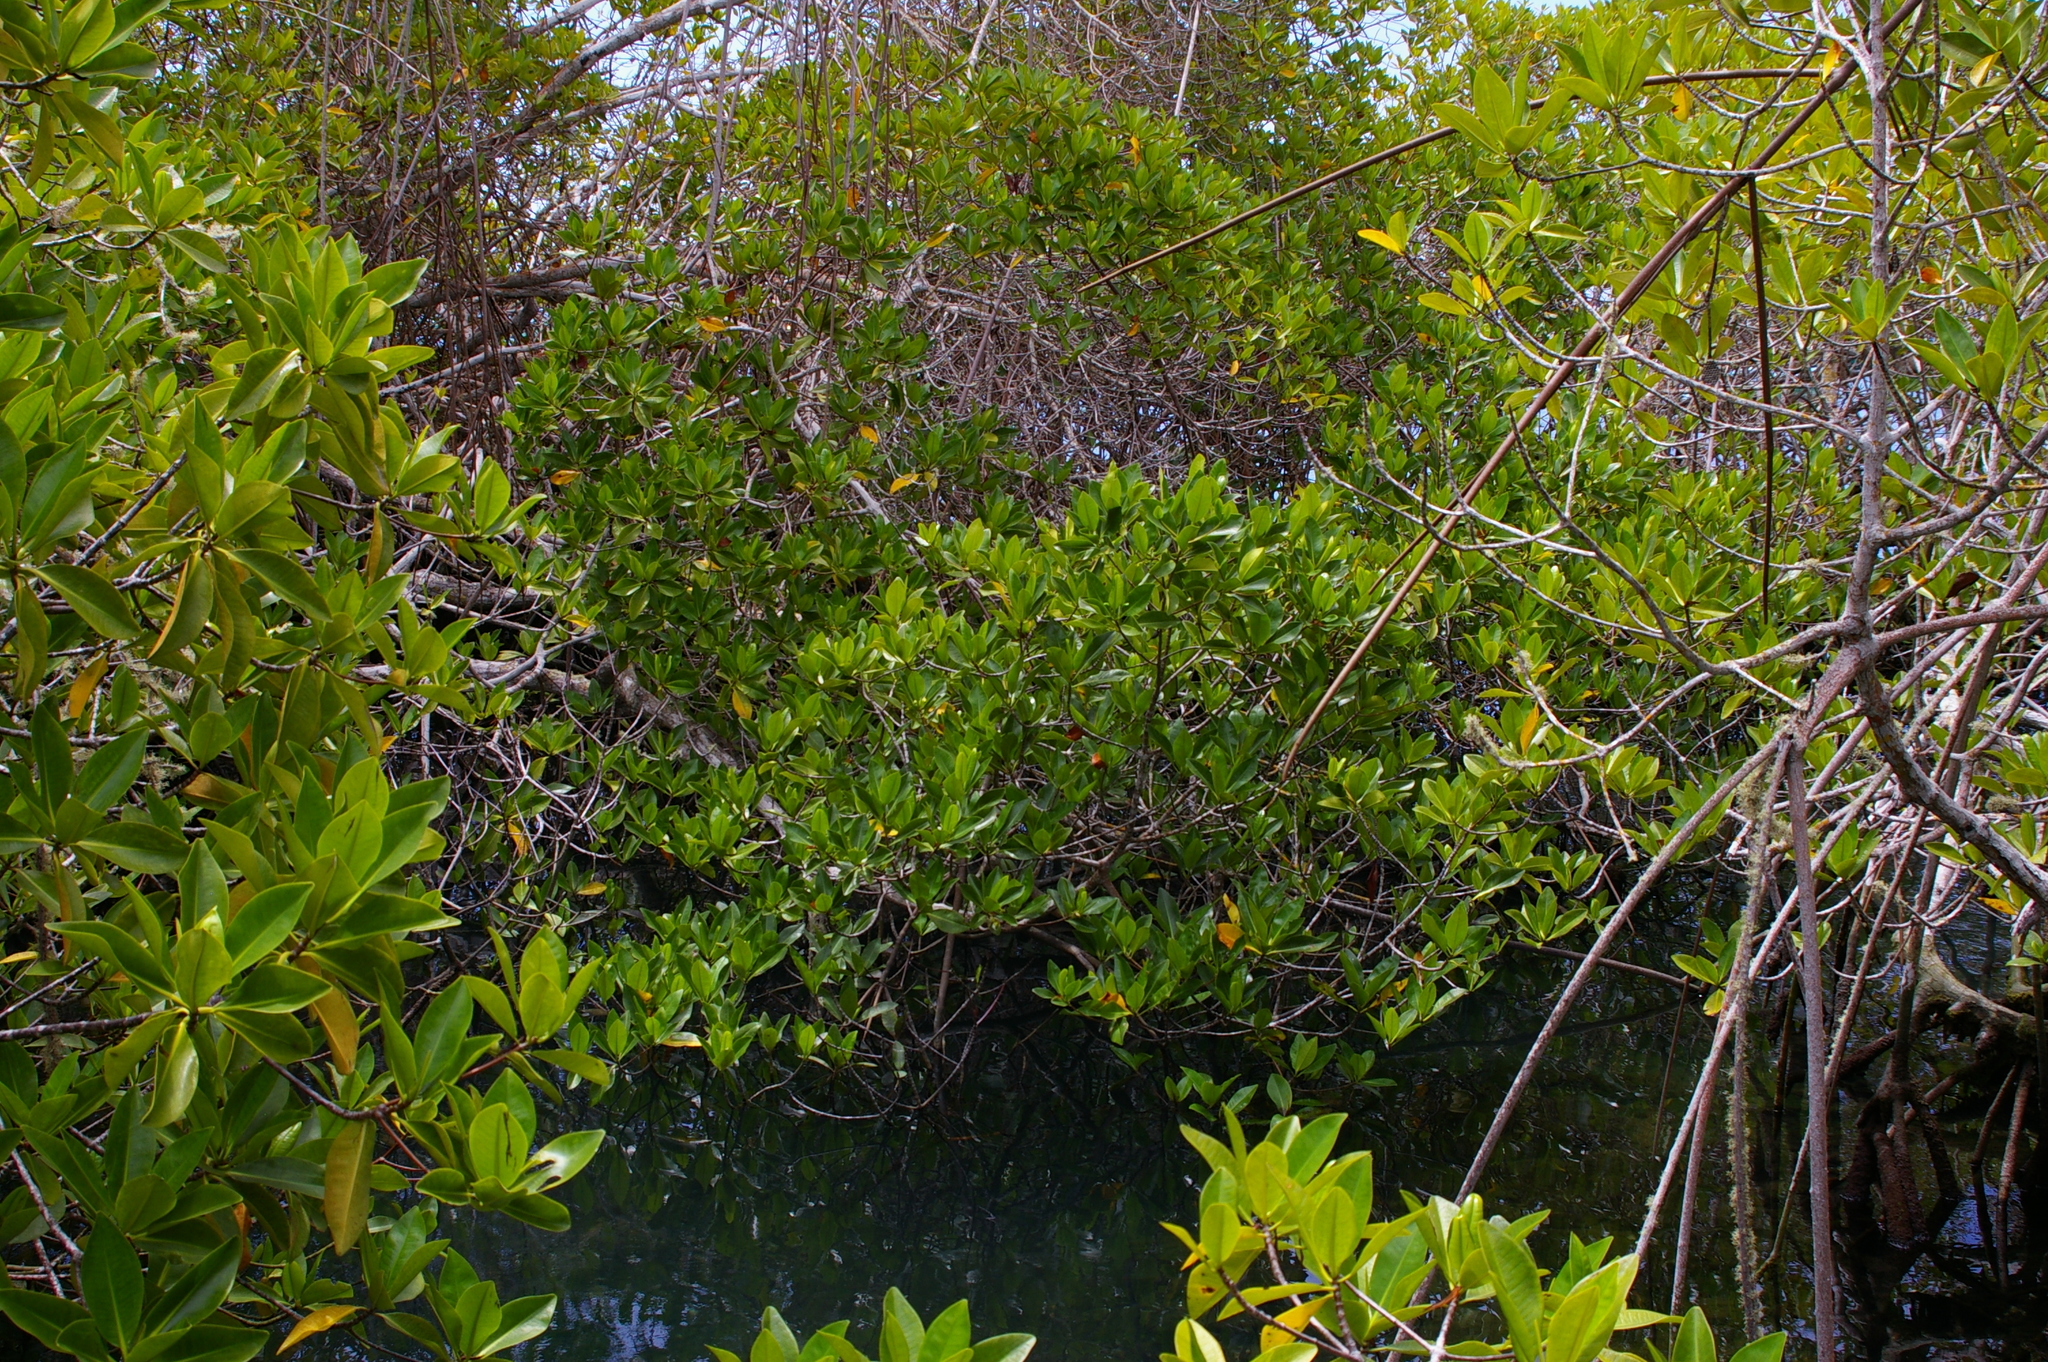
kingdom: Plantae
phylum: Tracheophyta
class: Magnoliopsida
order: Malpighiales
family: Rhizophoraceae
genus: Rhizophora
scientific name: Rhizophora mangle
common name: Red mangrove
